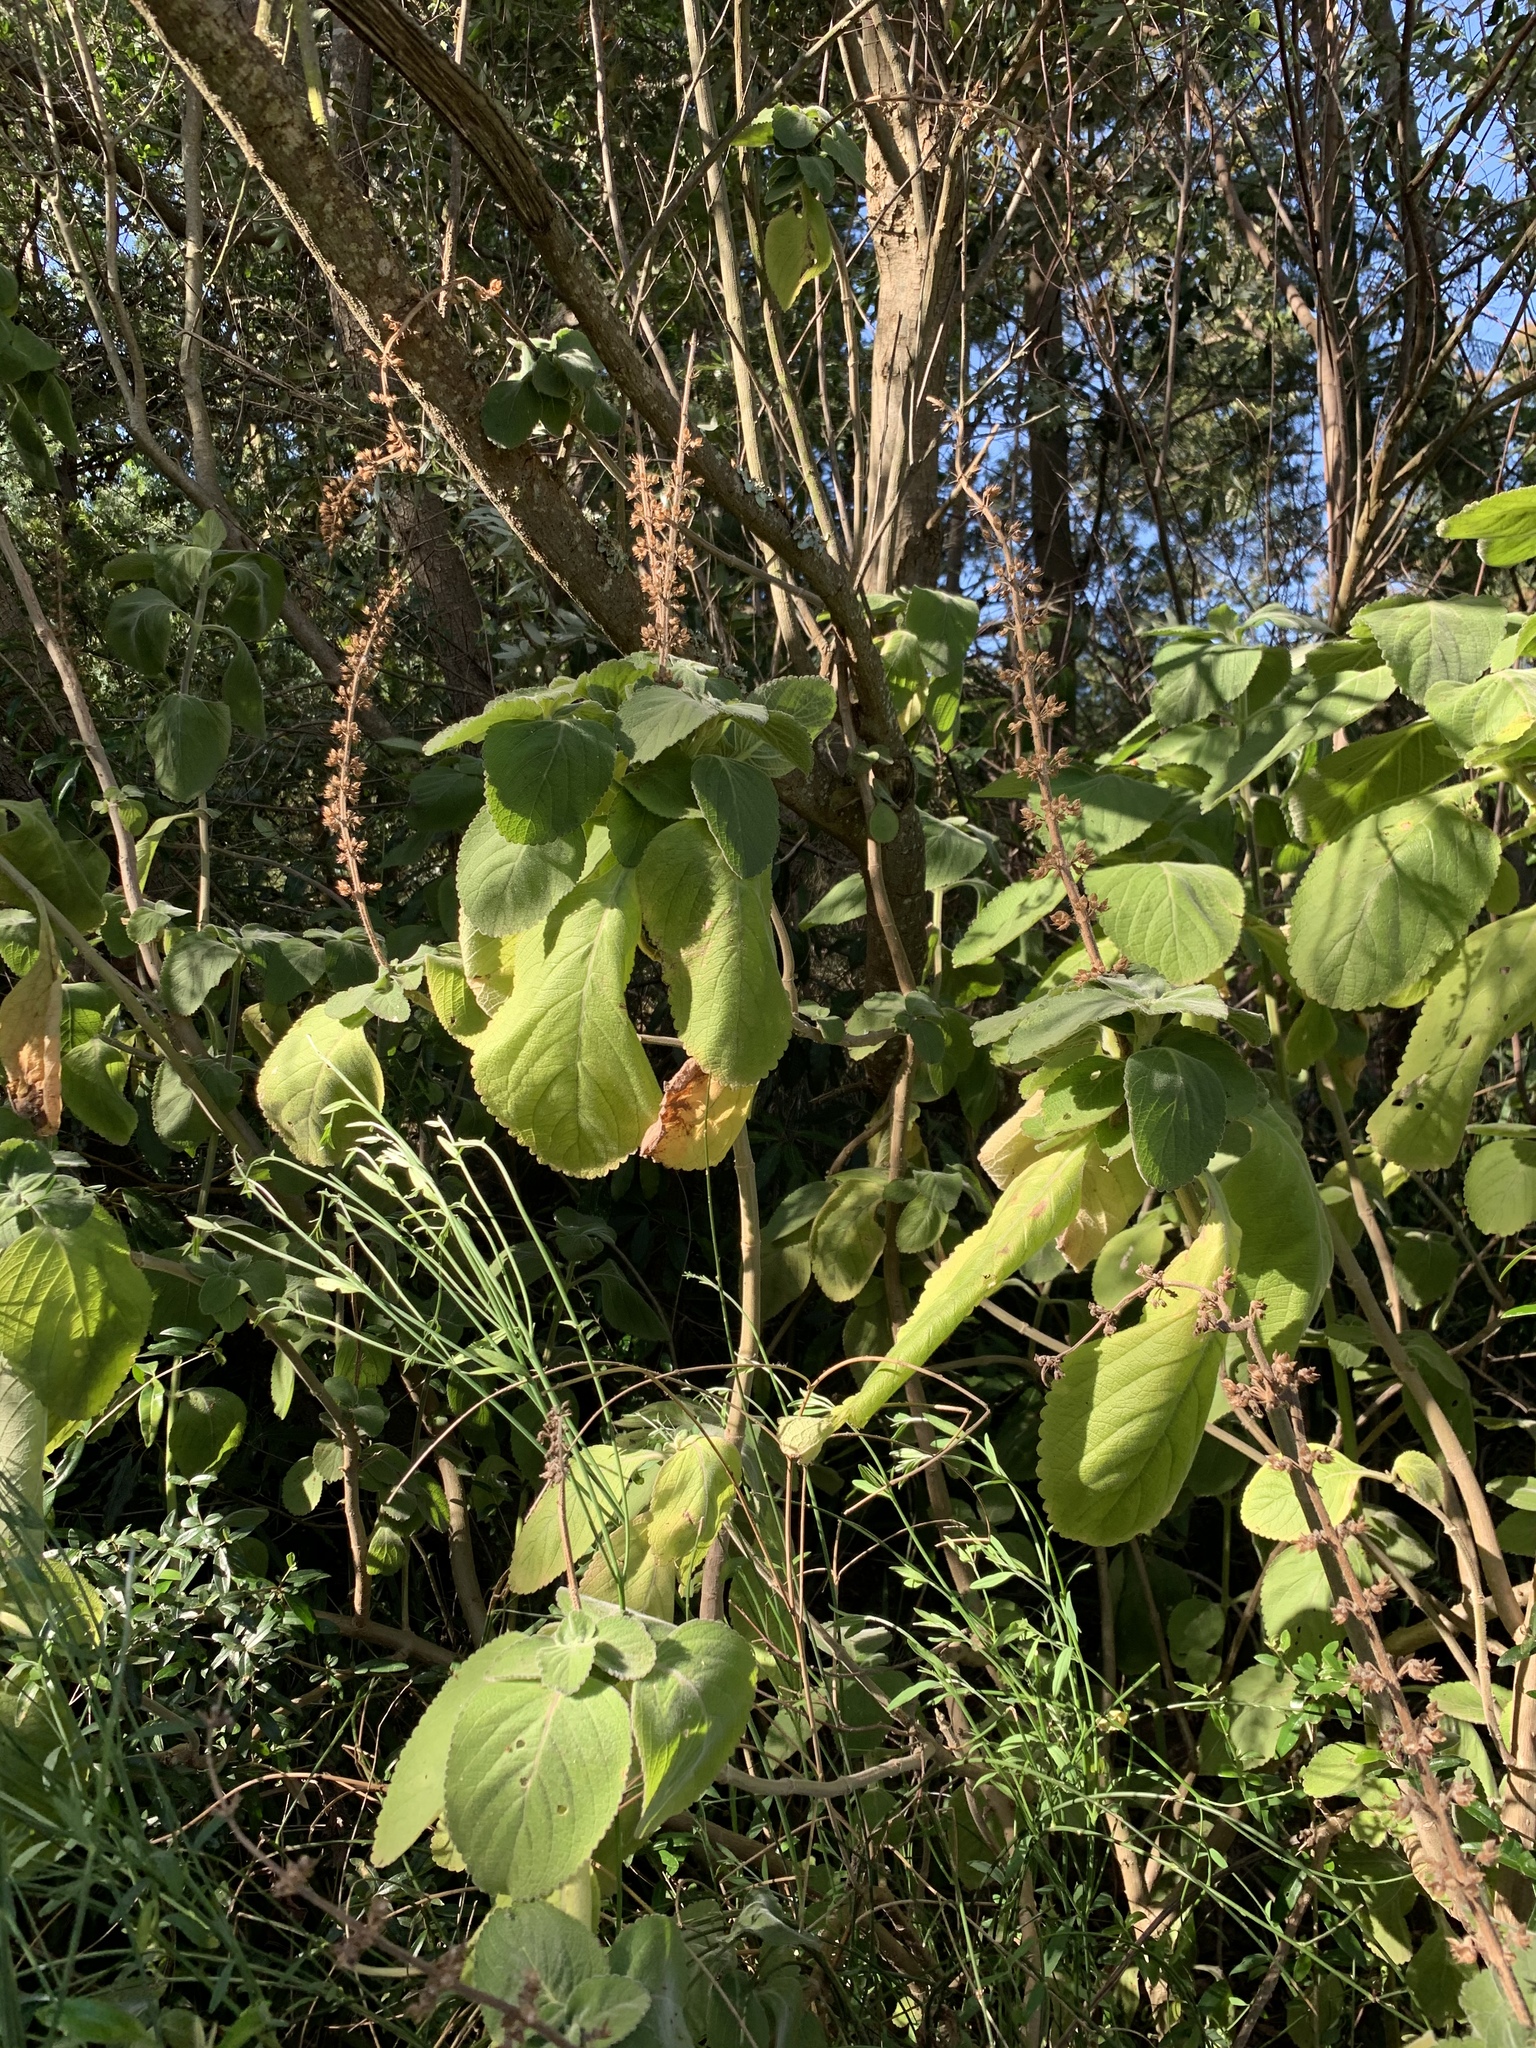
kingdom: Plantae
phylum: Tracheophyta
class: Magnoliopsida
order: Lamiales
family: Lamiaceae
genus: Coleus
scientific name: Coleus barbatus
